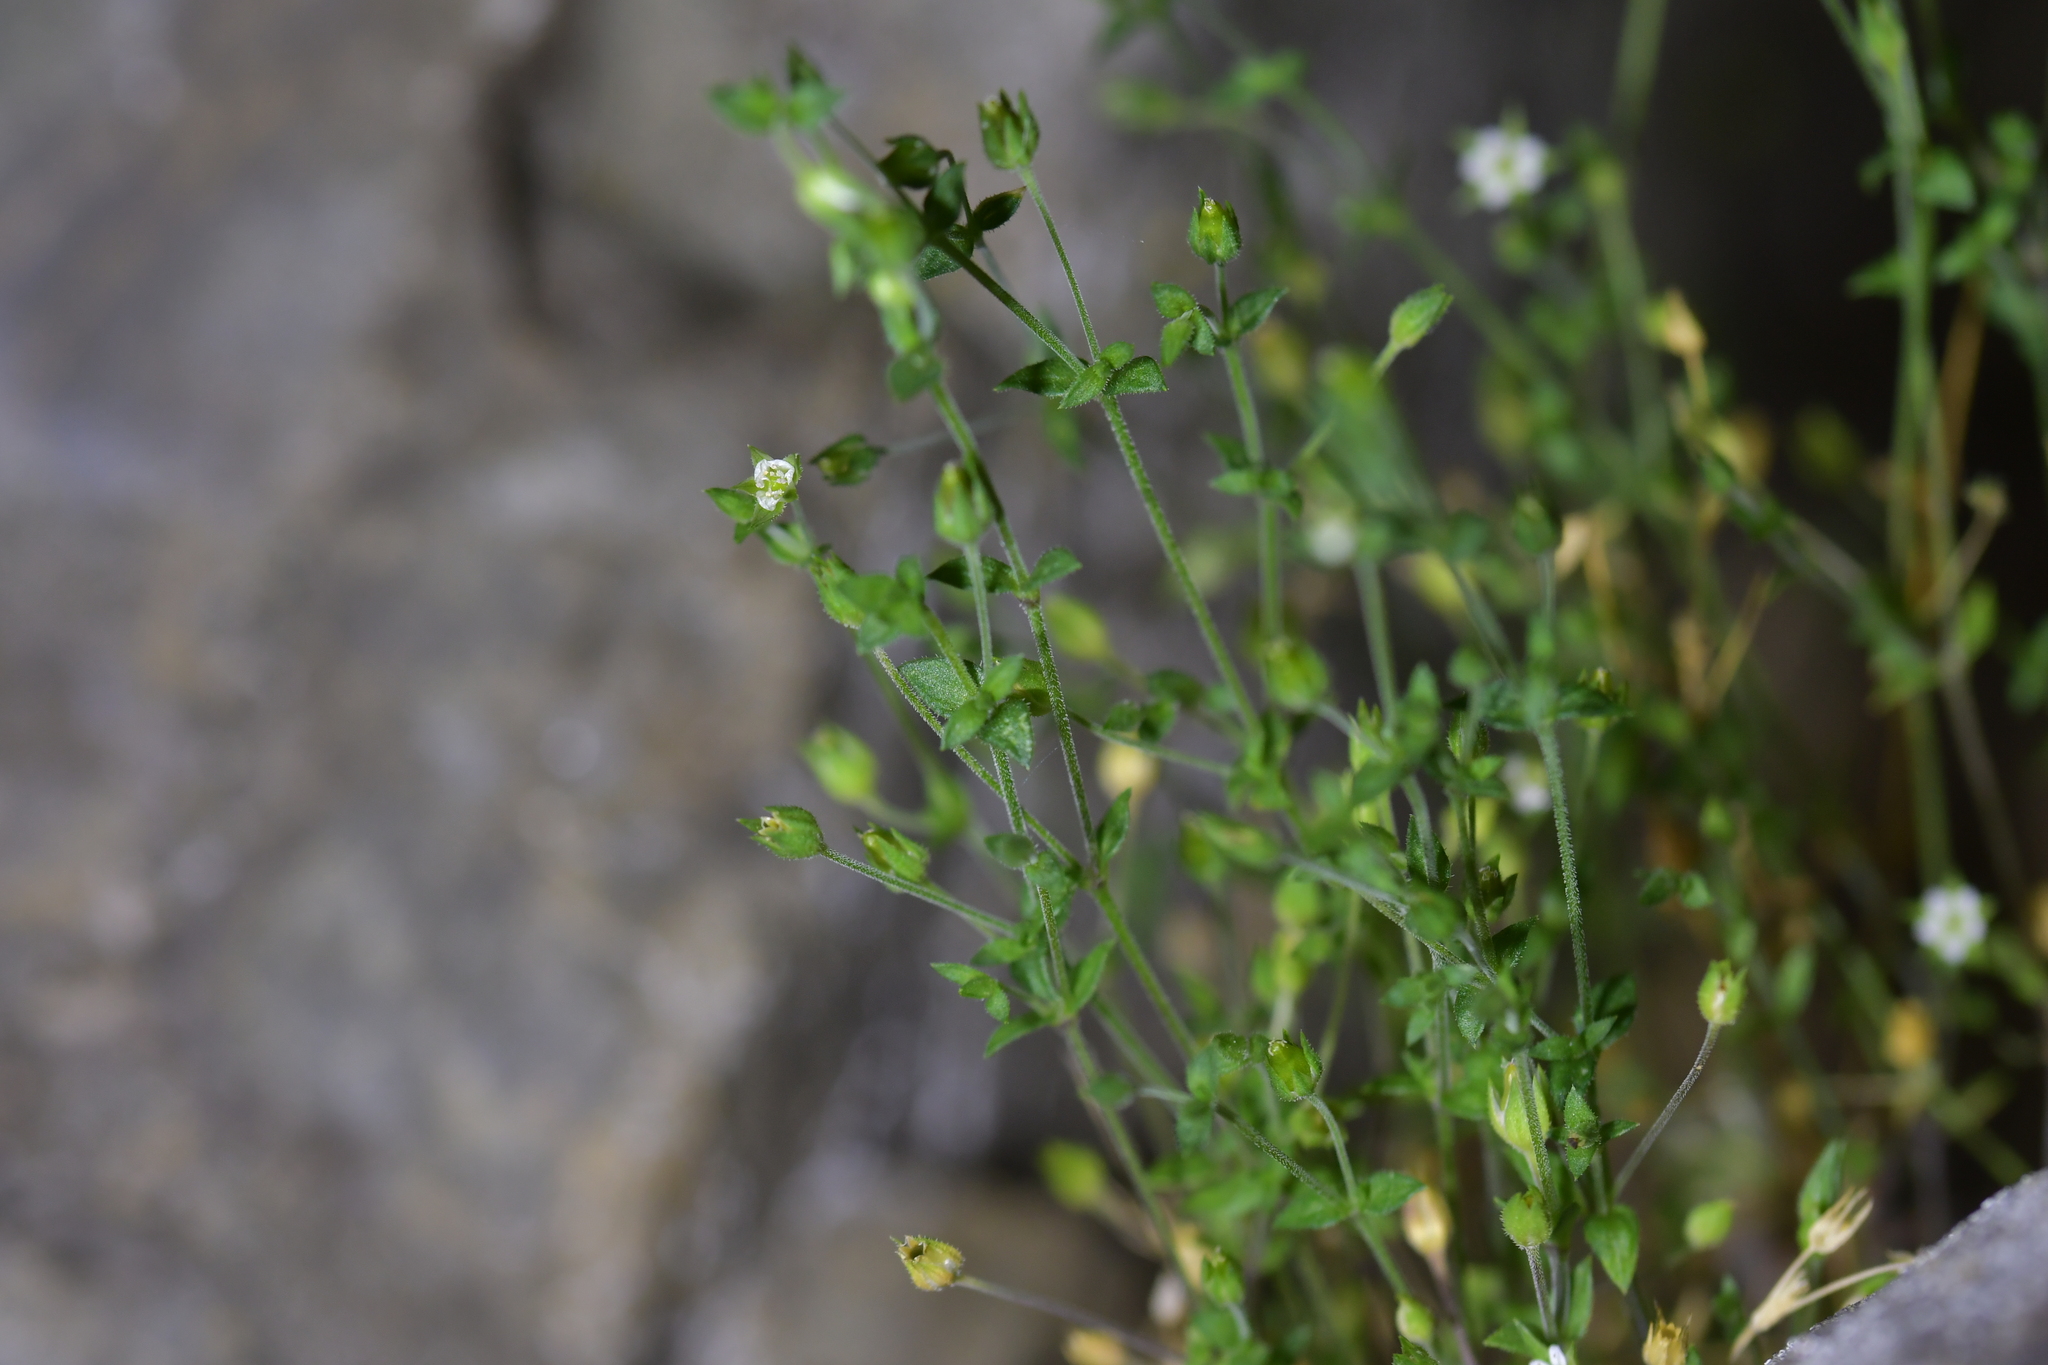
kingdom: Plantae
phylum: Tracheophyta
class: Magnoliopsida
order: Caryophyllales
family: Caryophyllaceae
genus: Arenaria
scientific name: Arenaria serpyllifolia
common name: Thyme-leaved sandwort
